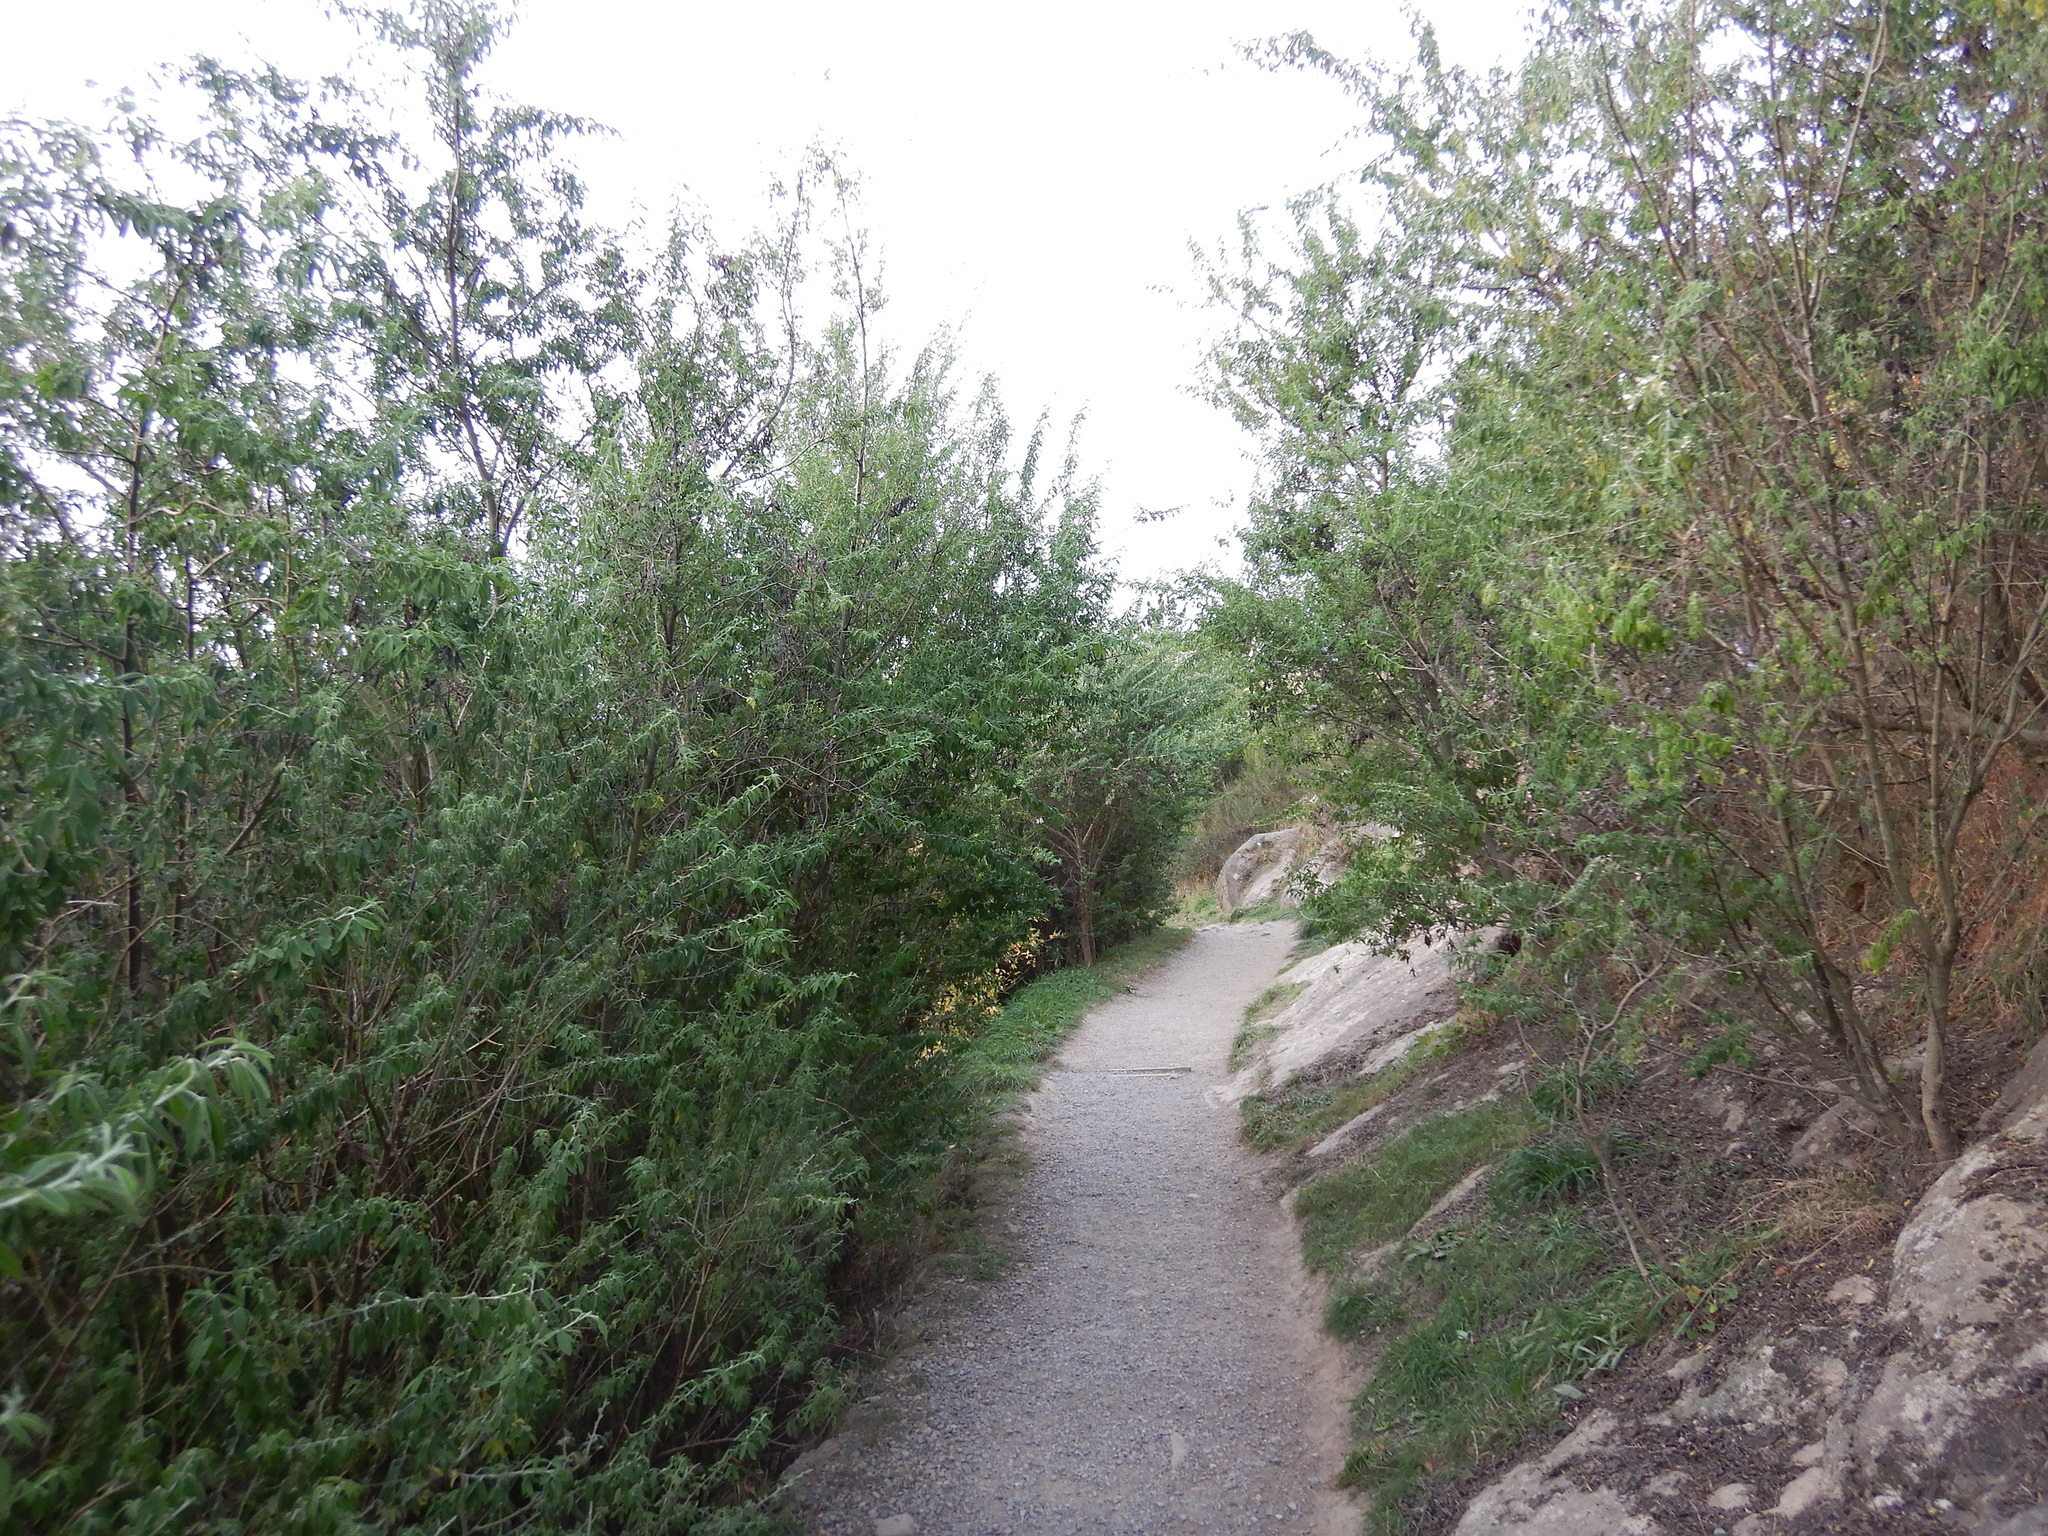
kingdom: Plantae
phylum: Tracheophyta
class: Magnoliopsida
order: Fabales
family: Fabaceae
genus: Chamaecytisus
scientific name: Chamaecytisus prolifer
